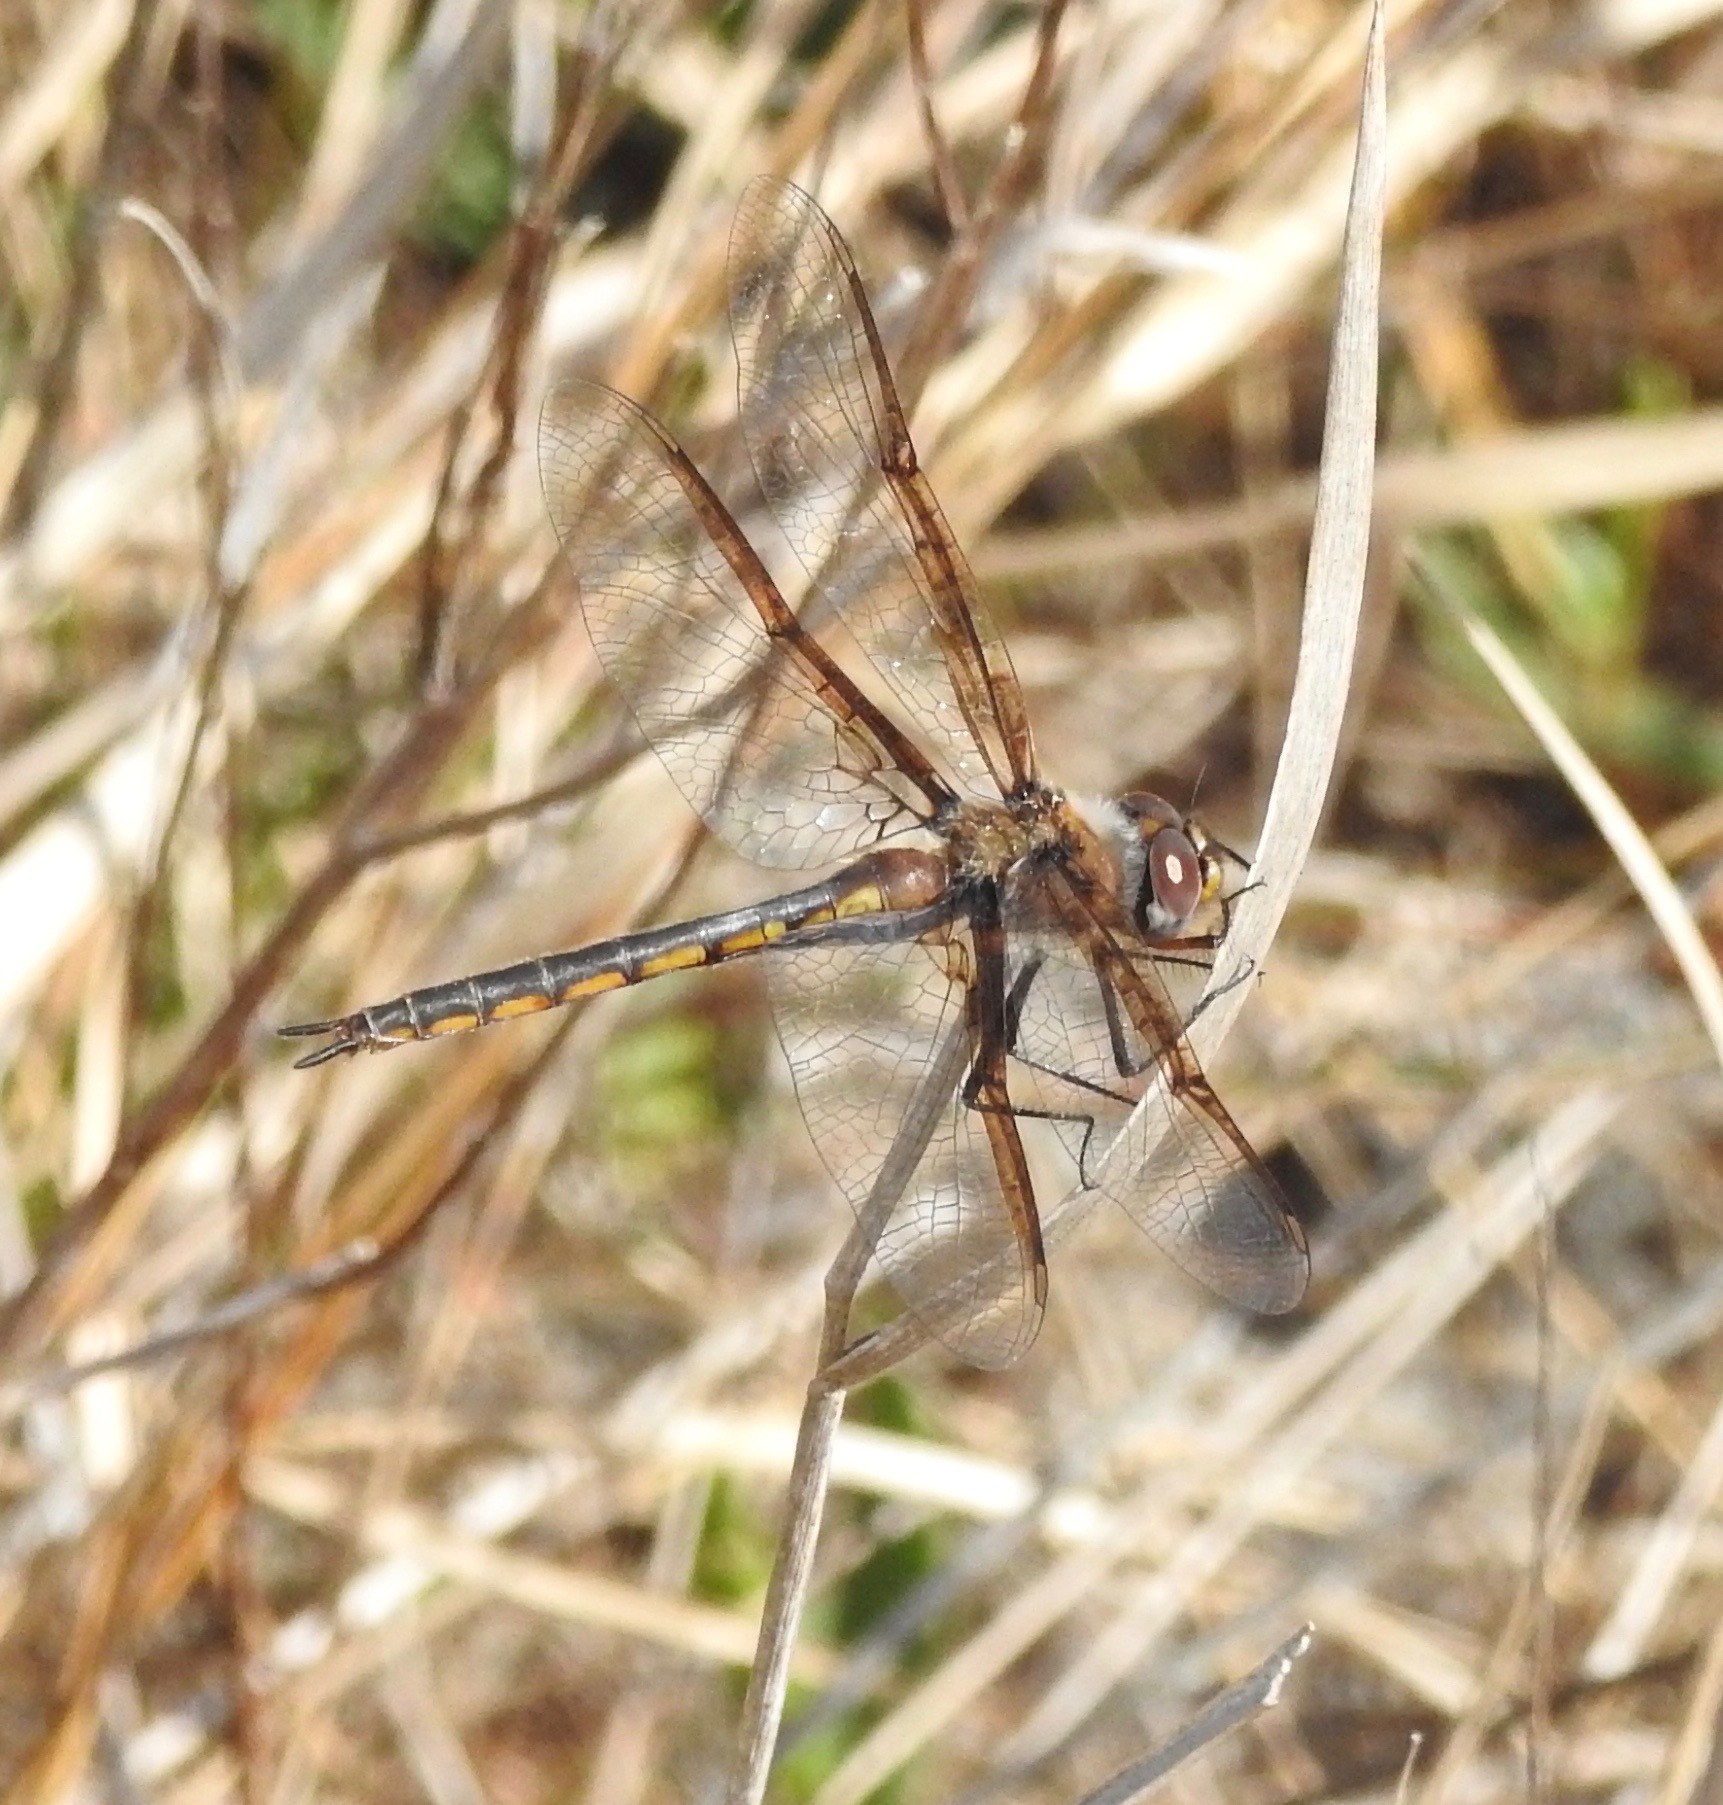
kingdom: Animalia
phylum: Arthropoda
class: Insecta
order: Odonata
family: Corduliidae
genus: Epitheca
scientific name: Epitheca costalis
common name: Slender baskettail
